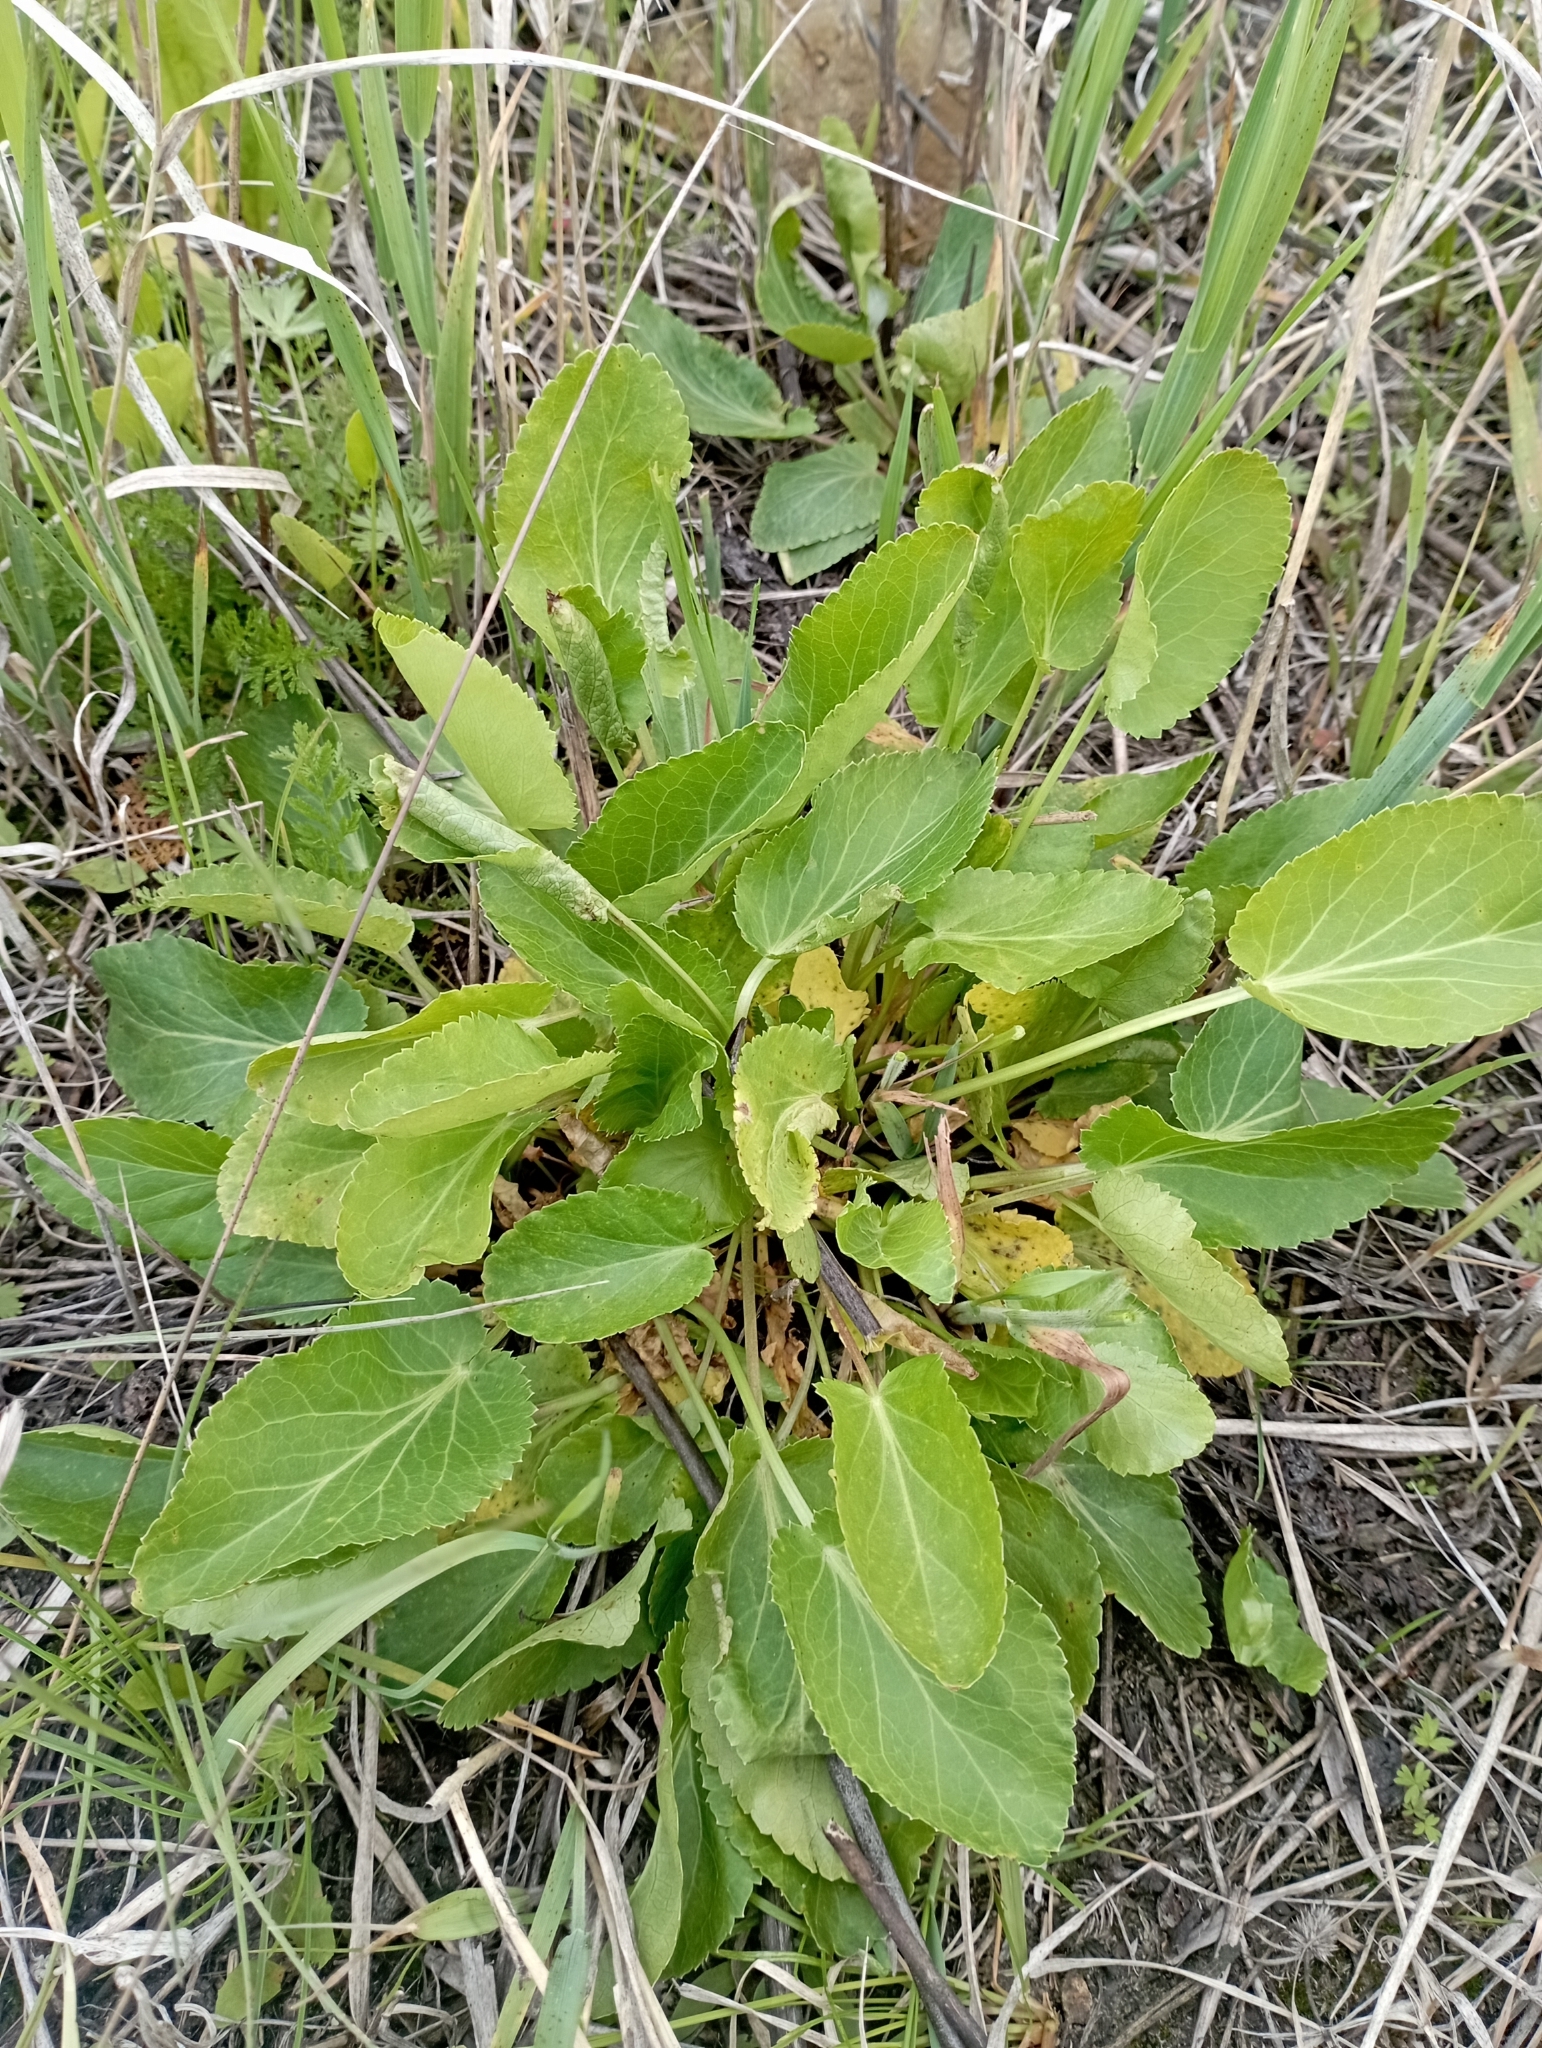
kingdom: Plantae
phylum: Tracheophyta
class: Magnoliopsida
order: Apiales
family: Apiaceae
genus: Eryngium
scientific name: Eryngium planum
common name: Blue eryngo
